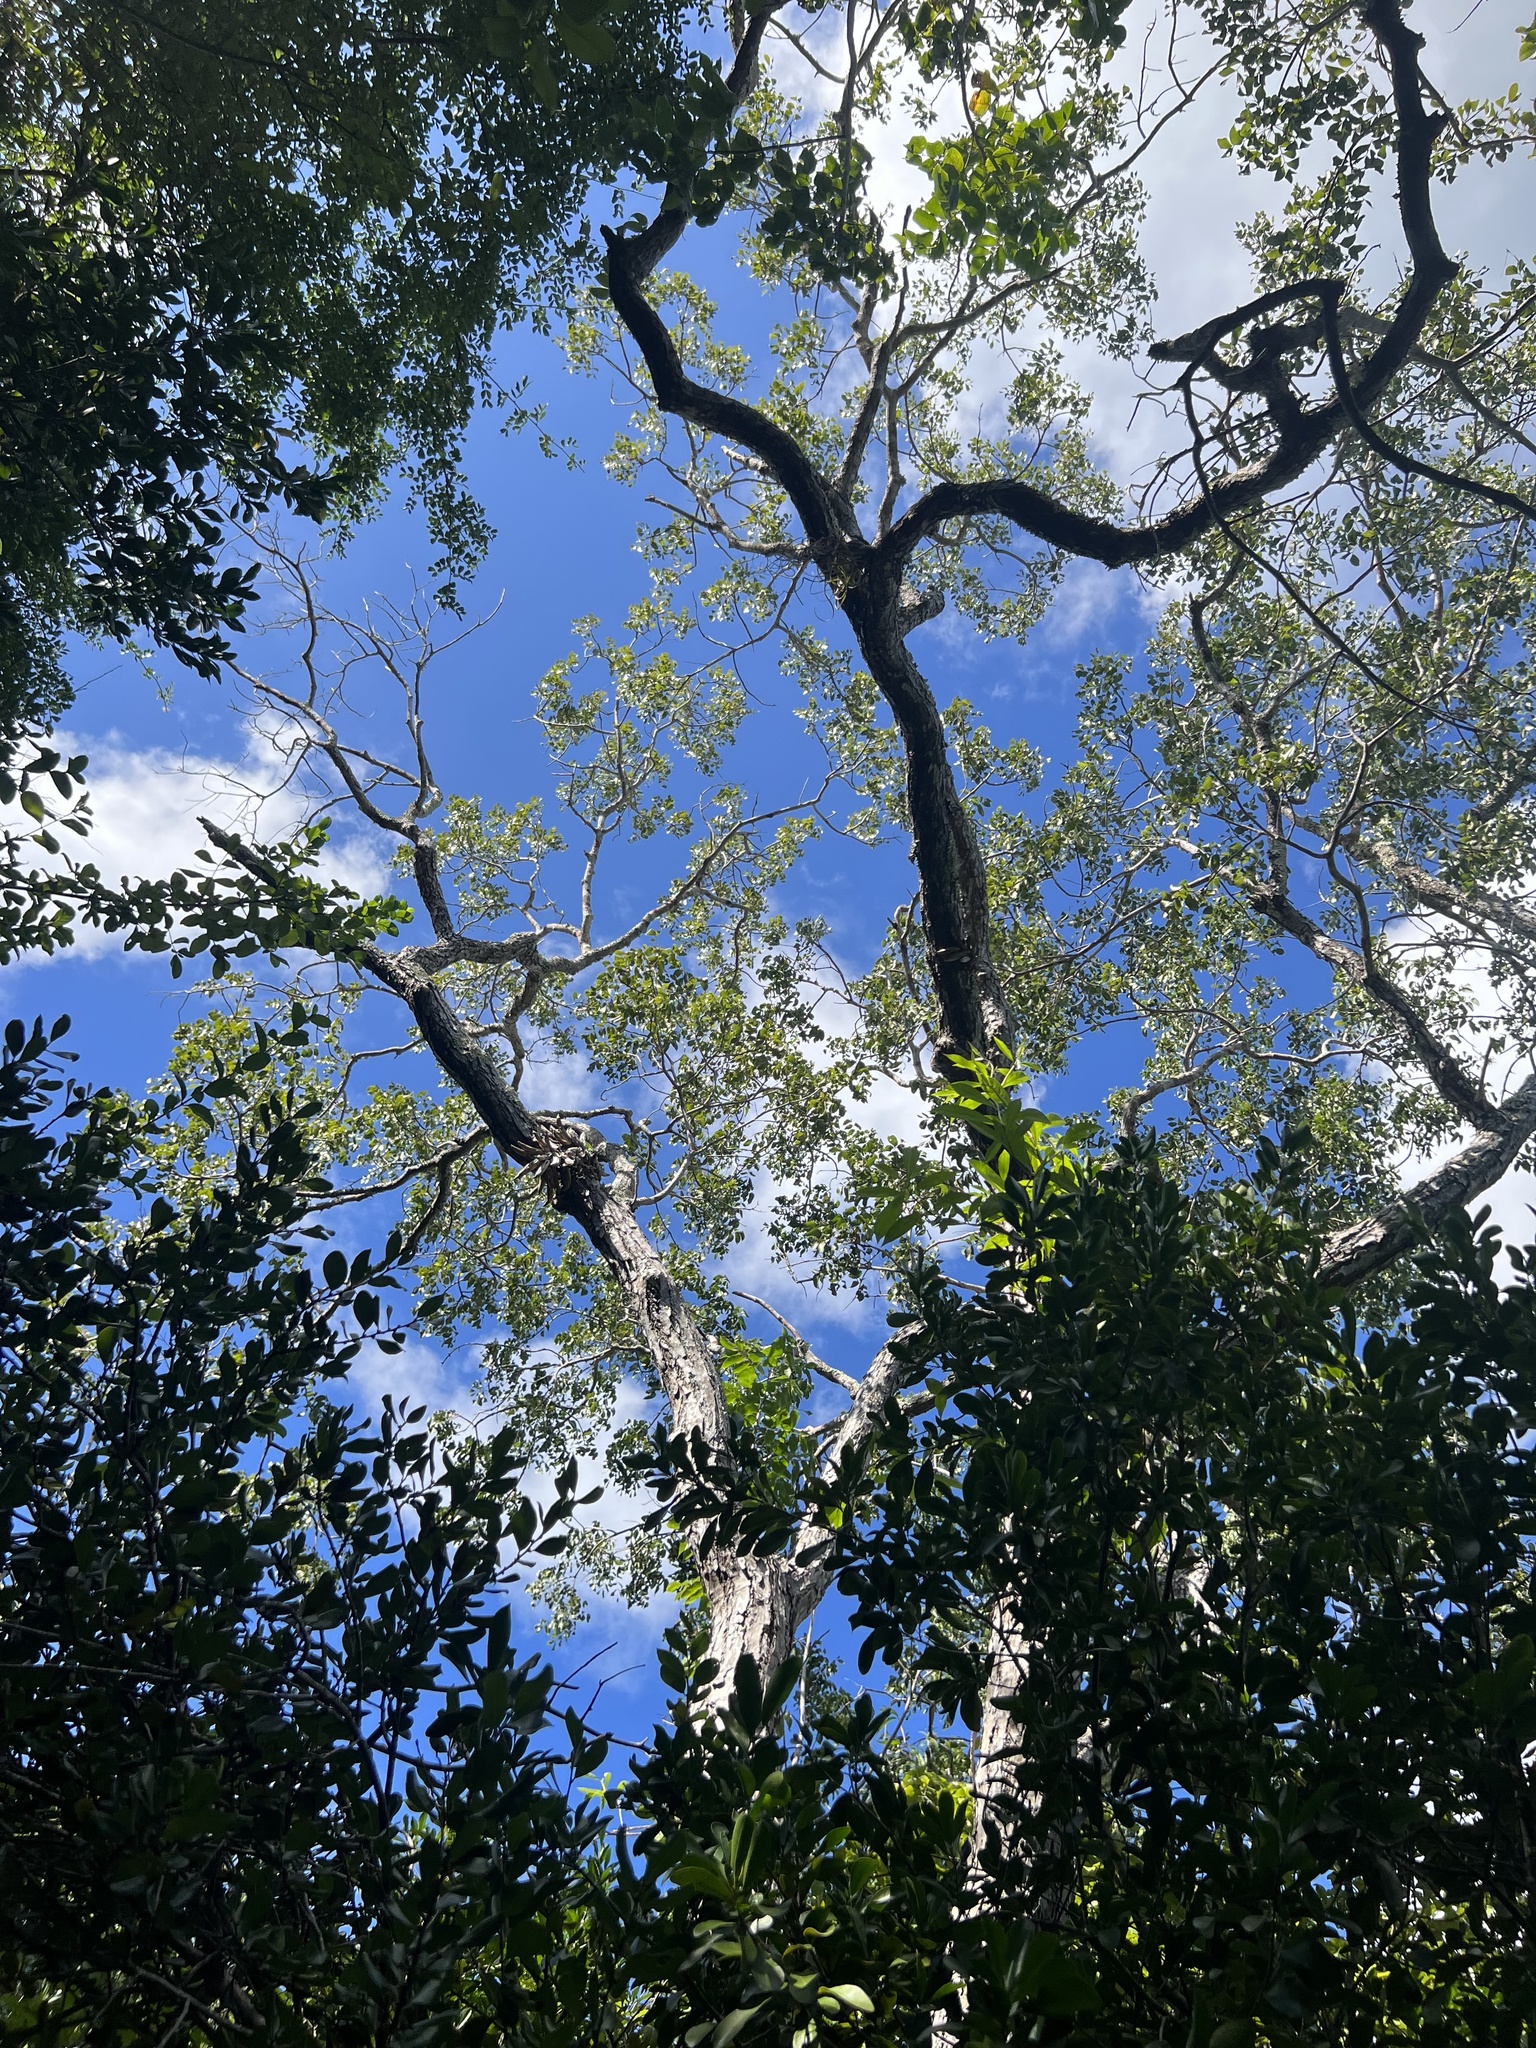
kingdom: Plantae
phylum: Tracheophyta
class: Magnoliopsida
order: Sapindales
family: Meliaceae
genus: Swietenia
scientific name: Swietenia mahagoni
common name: West indian mahogany
